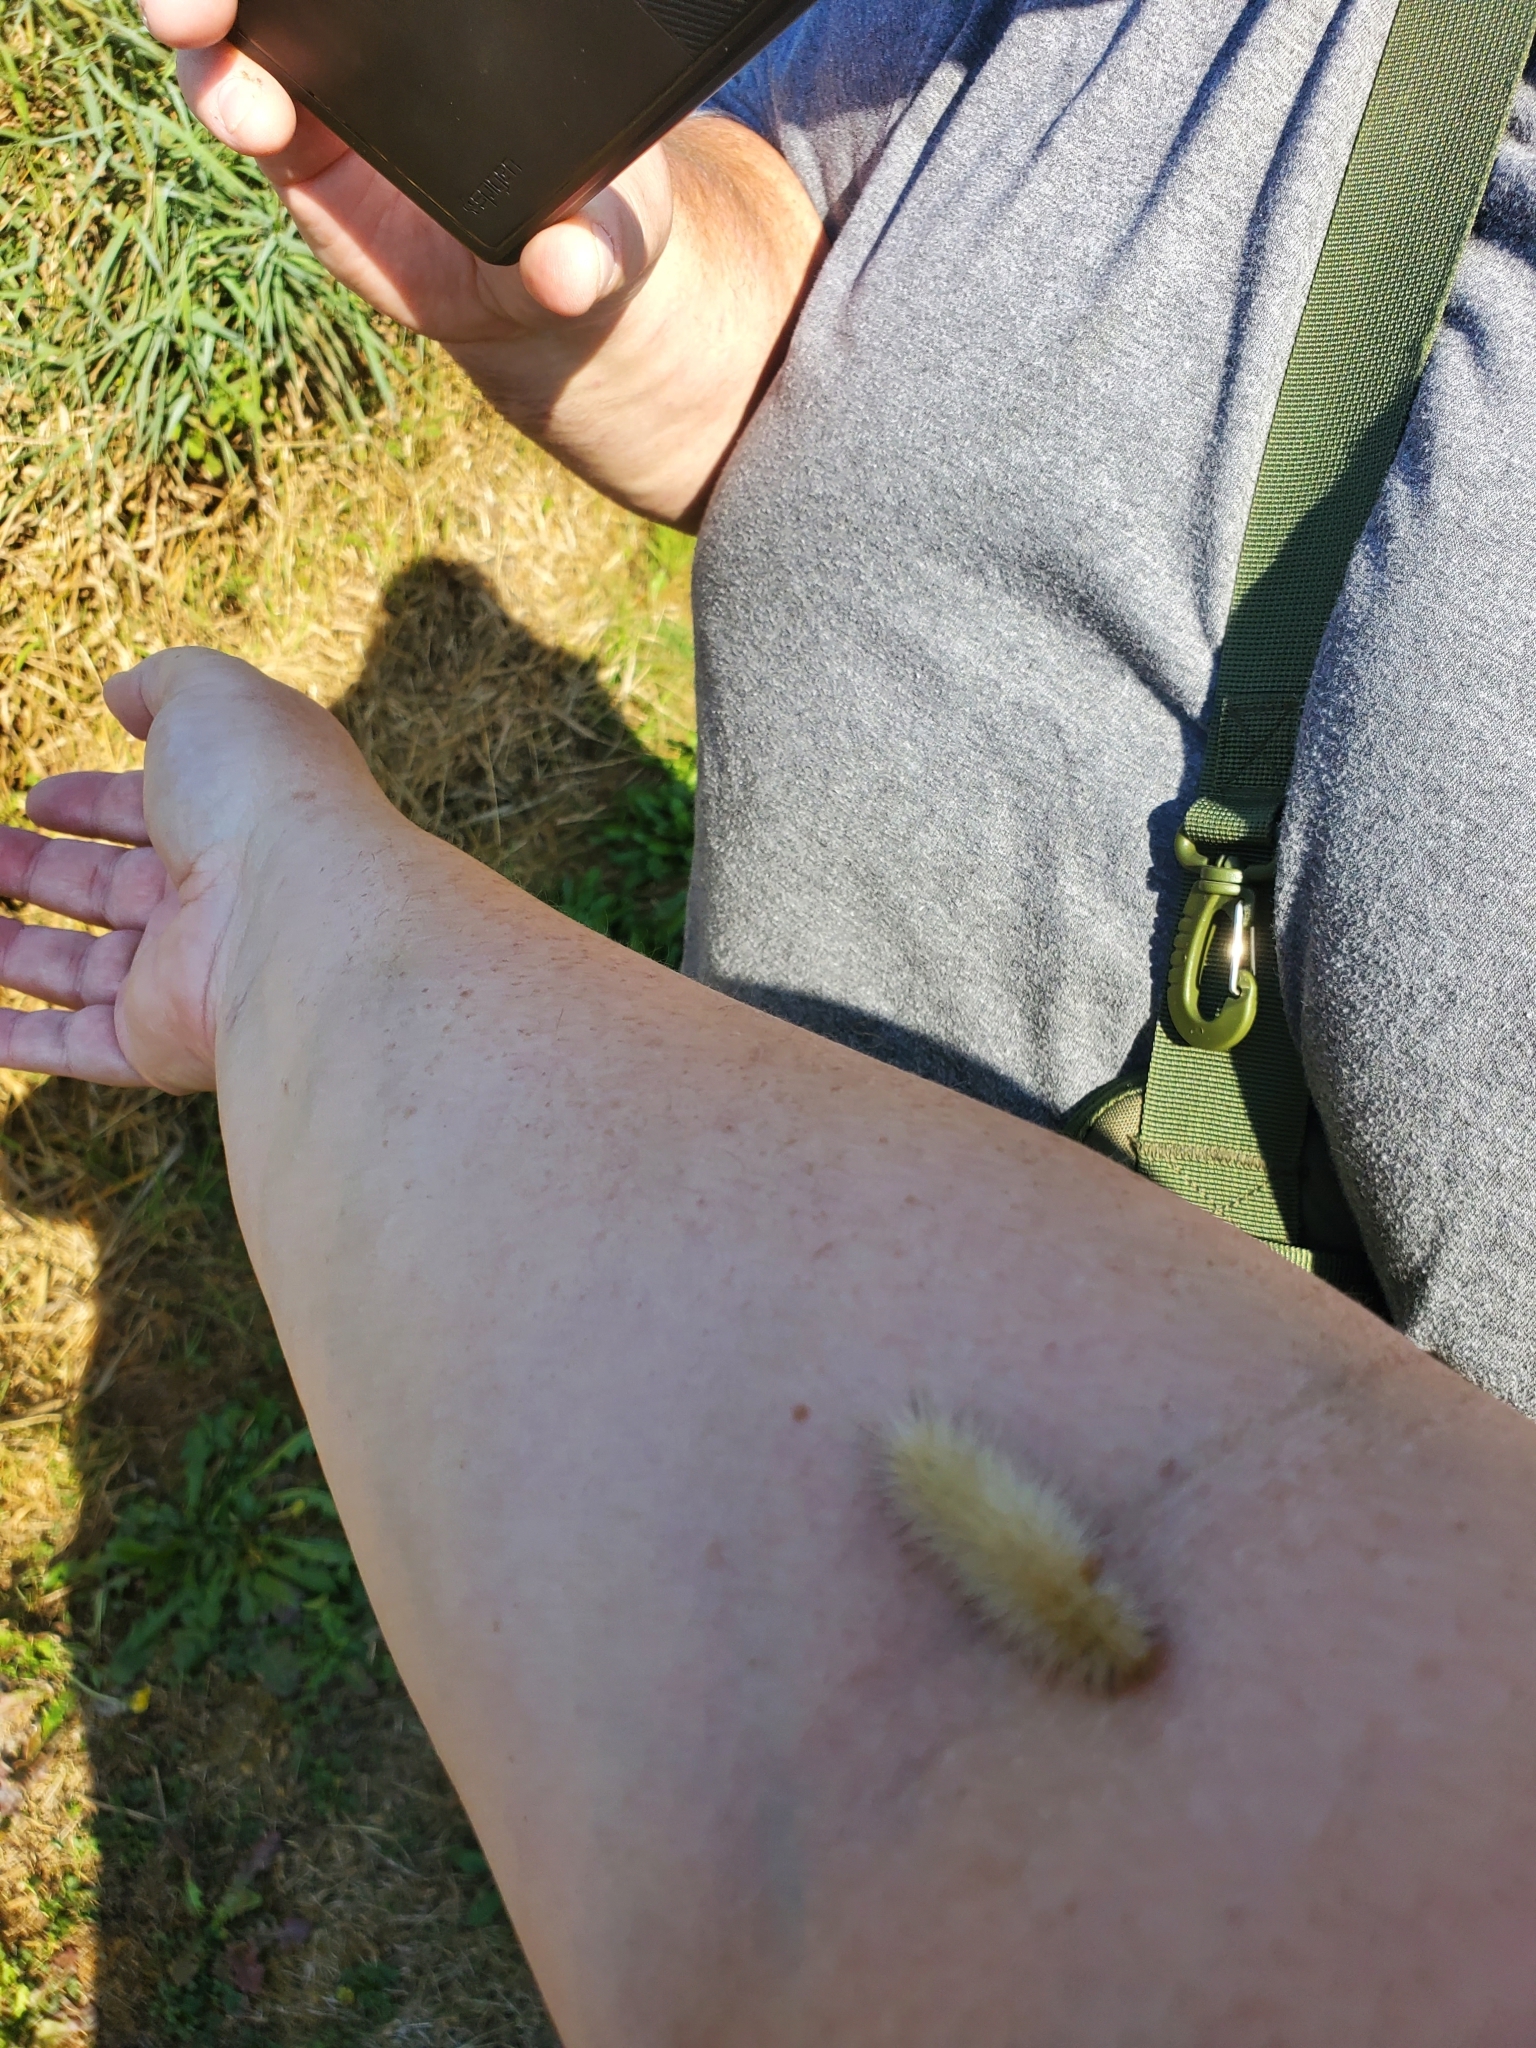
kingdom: Animalia
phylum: Arthropoda
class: Insecta
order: Lepidoptera
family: Erebidae
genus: Spilosoma
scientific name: Spilosoma virginica
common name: Virginia tiger moth
